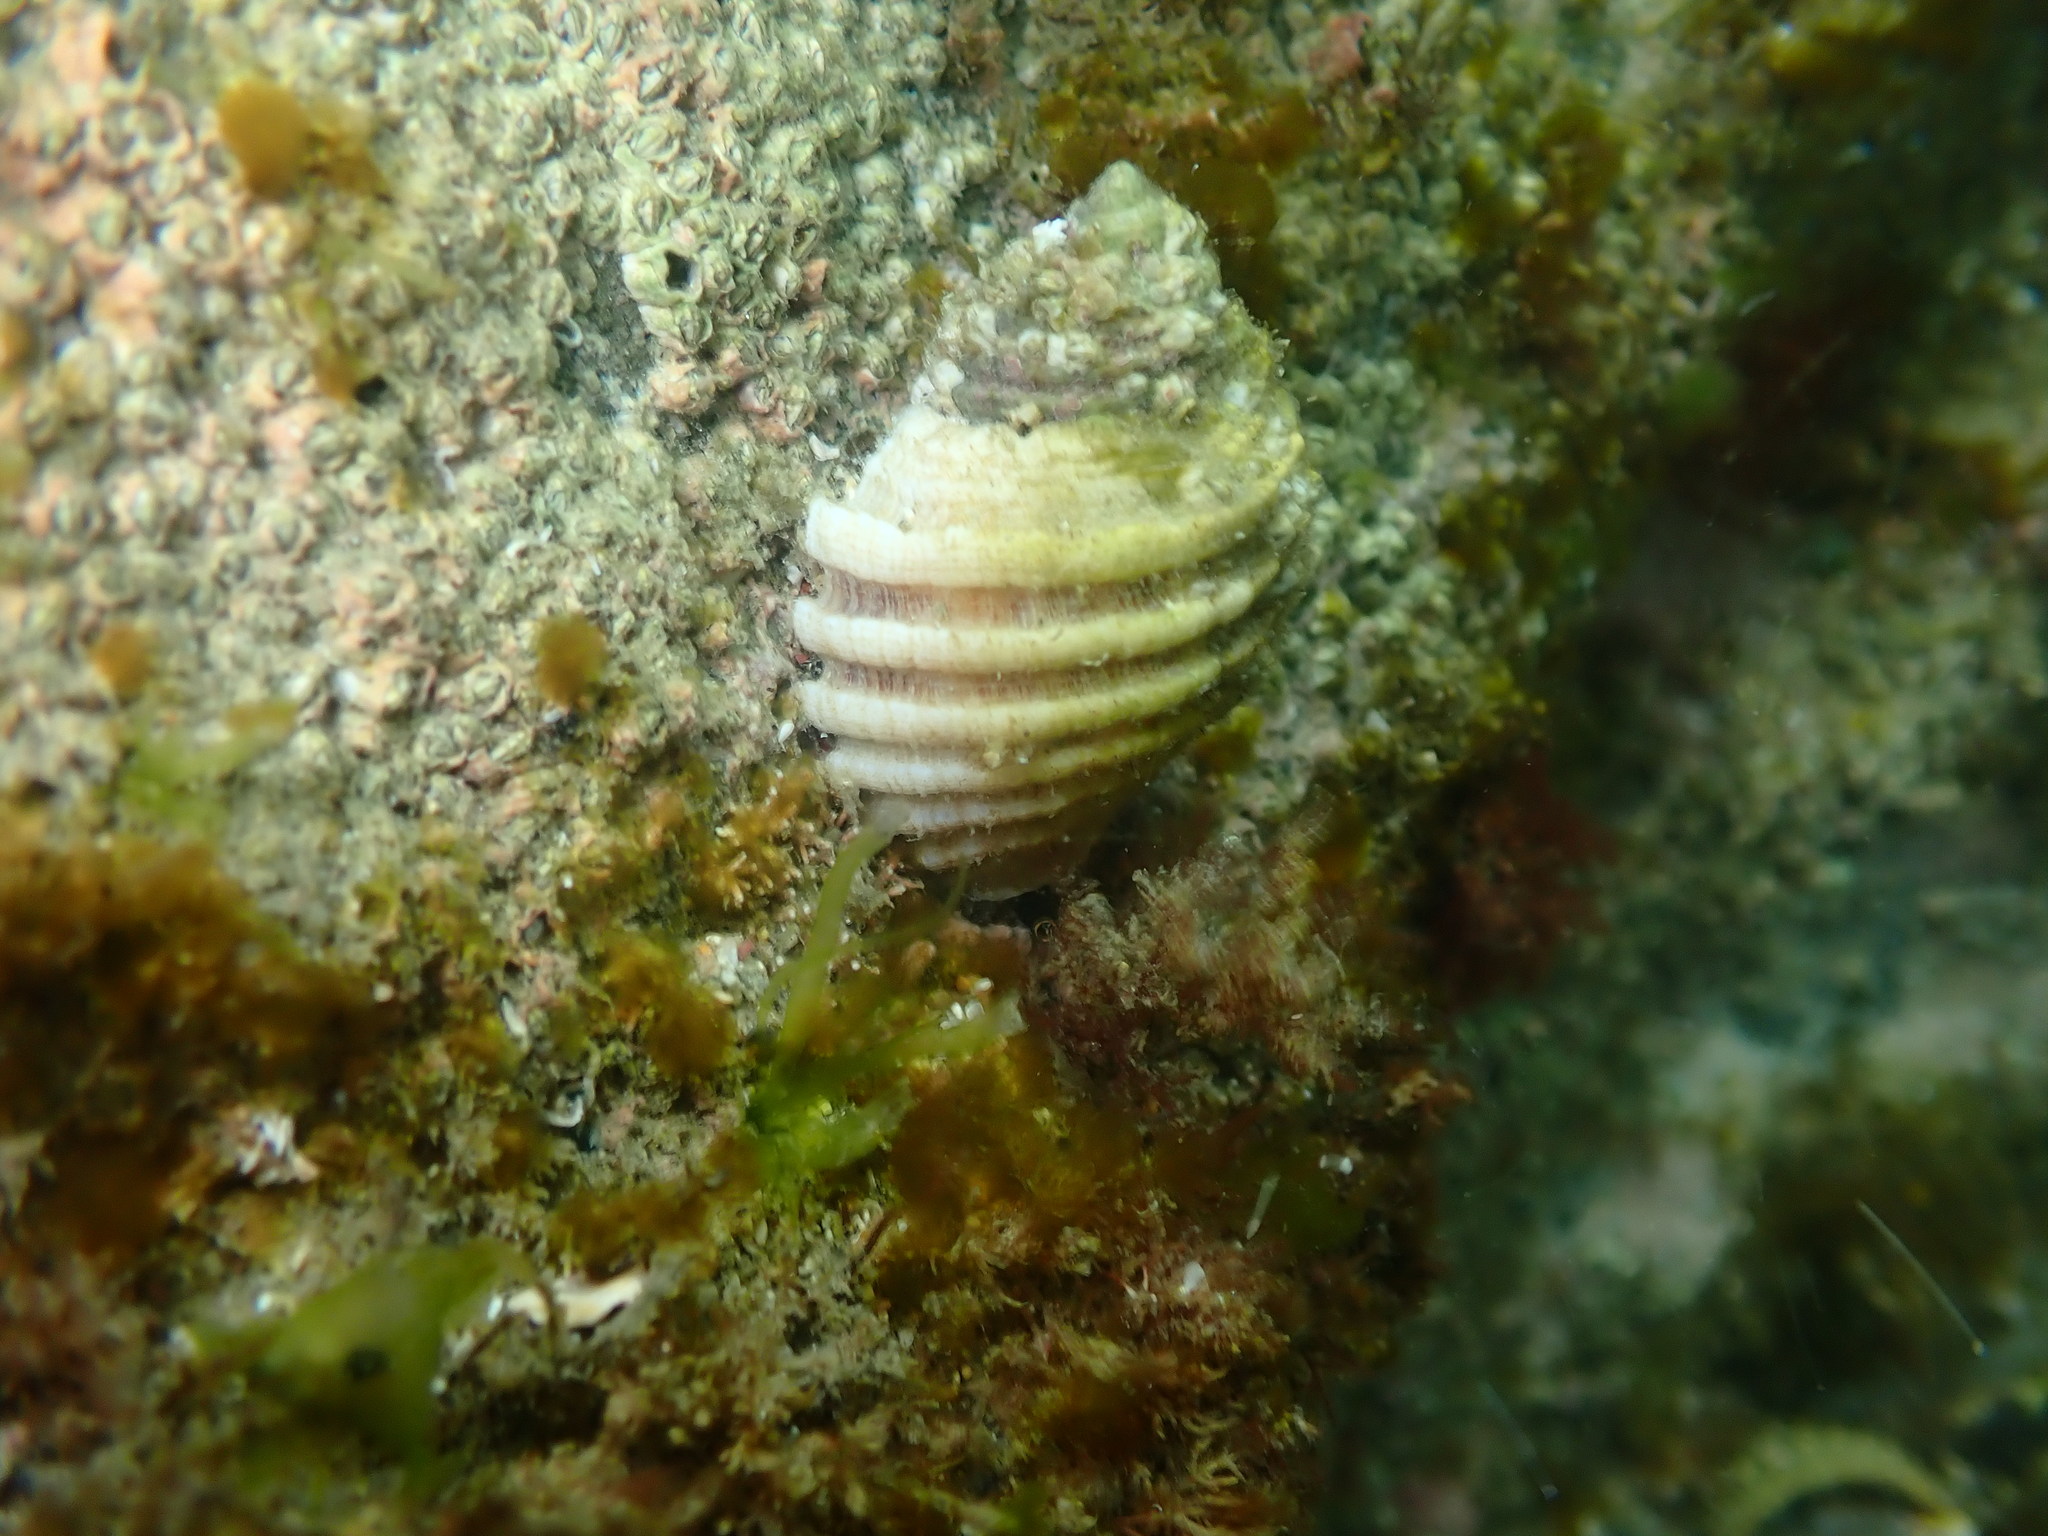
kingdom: Animalia
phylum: Mollusca
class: Gastropoda
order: Neogastropoda
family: Muricidae
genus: Dicathais
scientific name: Dicathais orbita
